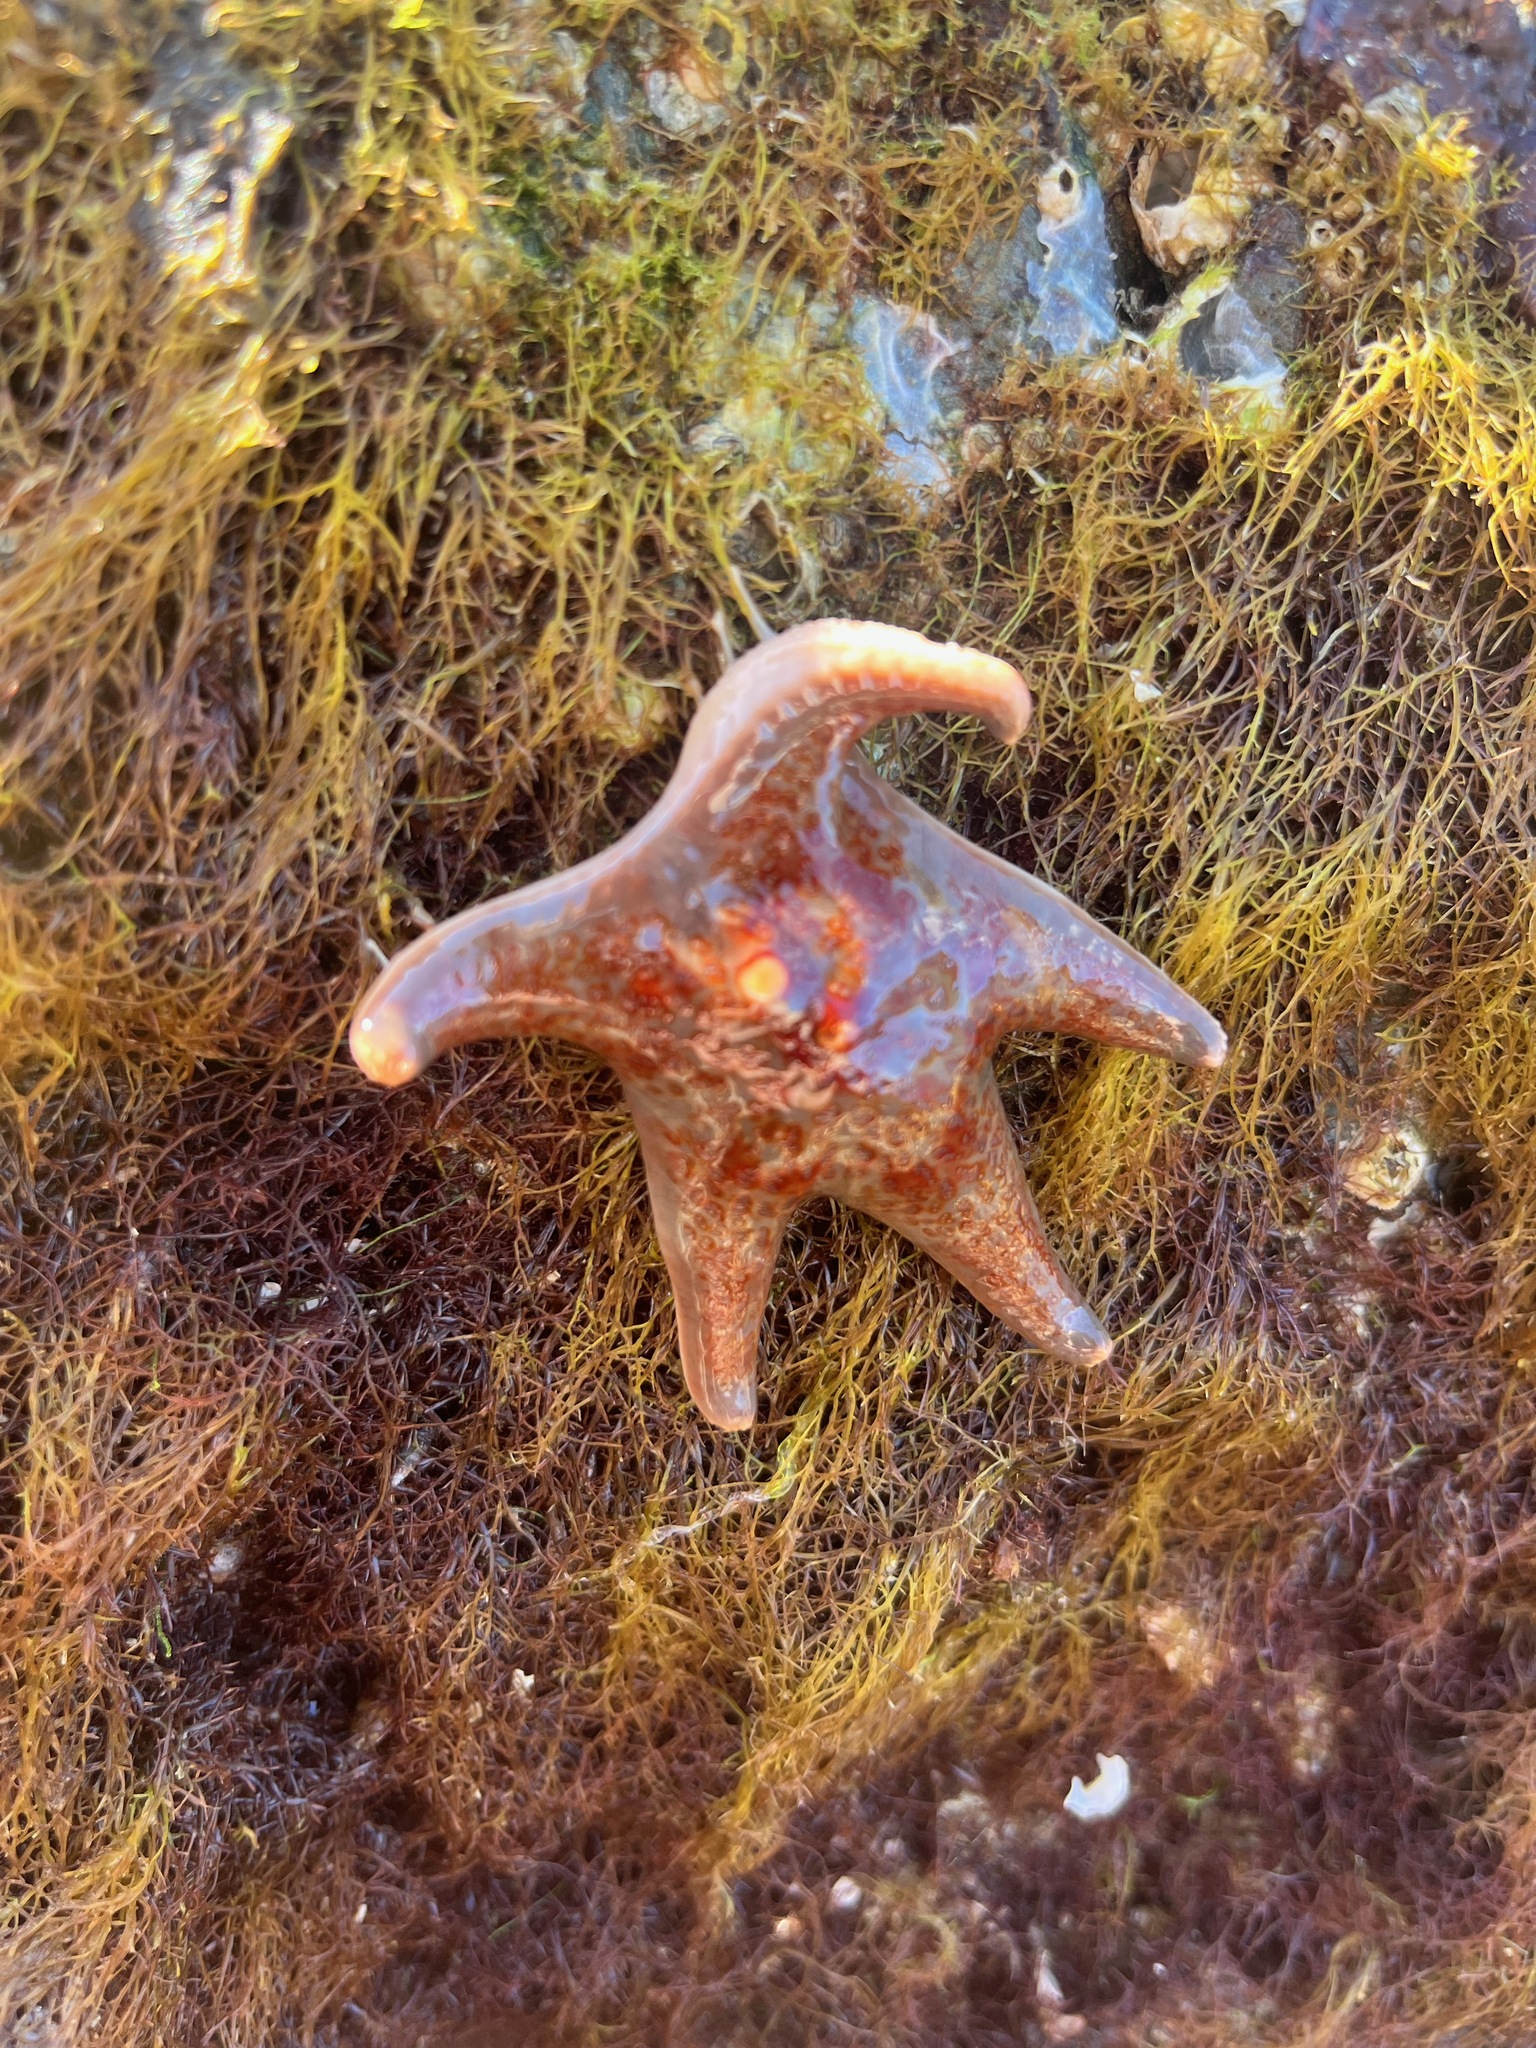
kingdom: Animalia
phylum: Echinodermata
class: Asteroidea
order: Valvatida
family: Asteropseidae
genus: Dermasterias
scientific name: Dermasterias imbricata
